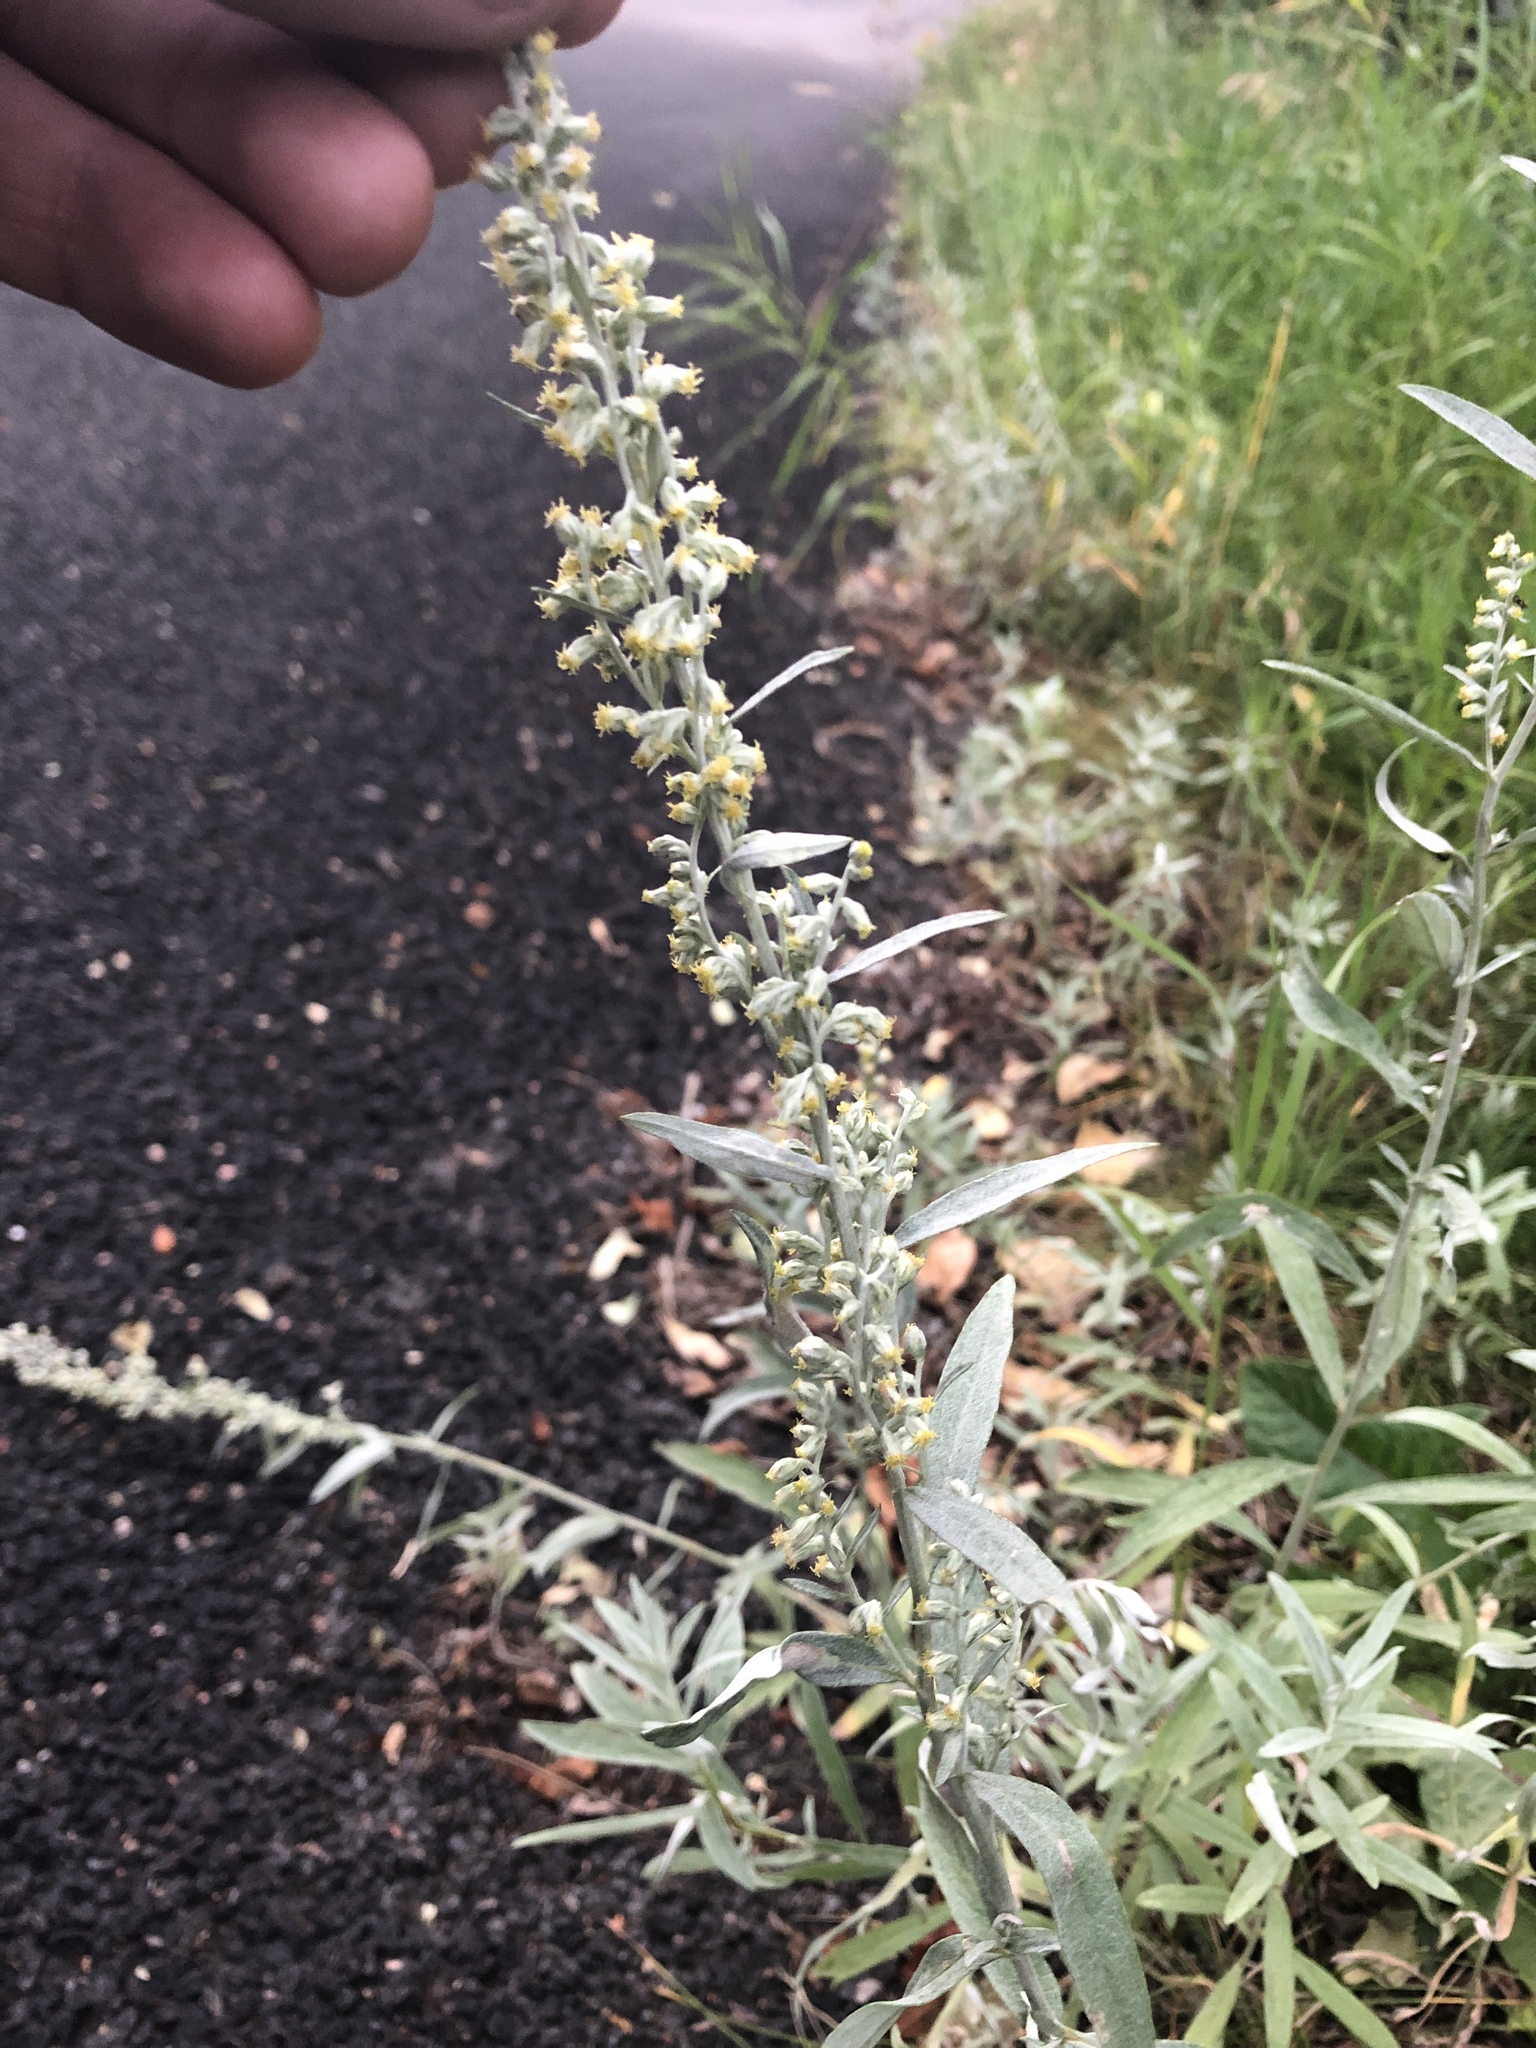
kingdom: Plantae
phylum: Tracheophyta
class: Magnoliopsida
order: Asterales
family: Asteraceae
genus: Artemisia
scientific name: Artemisia ludoviciana
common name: Western mugwort
